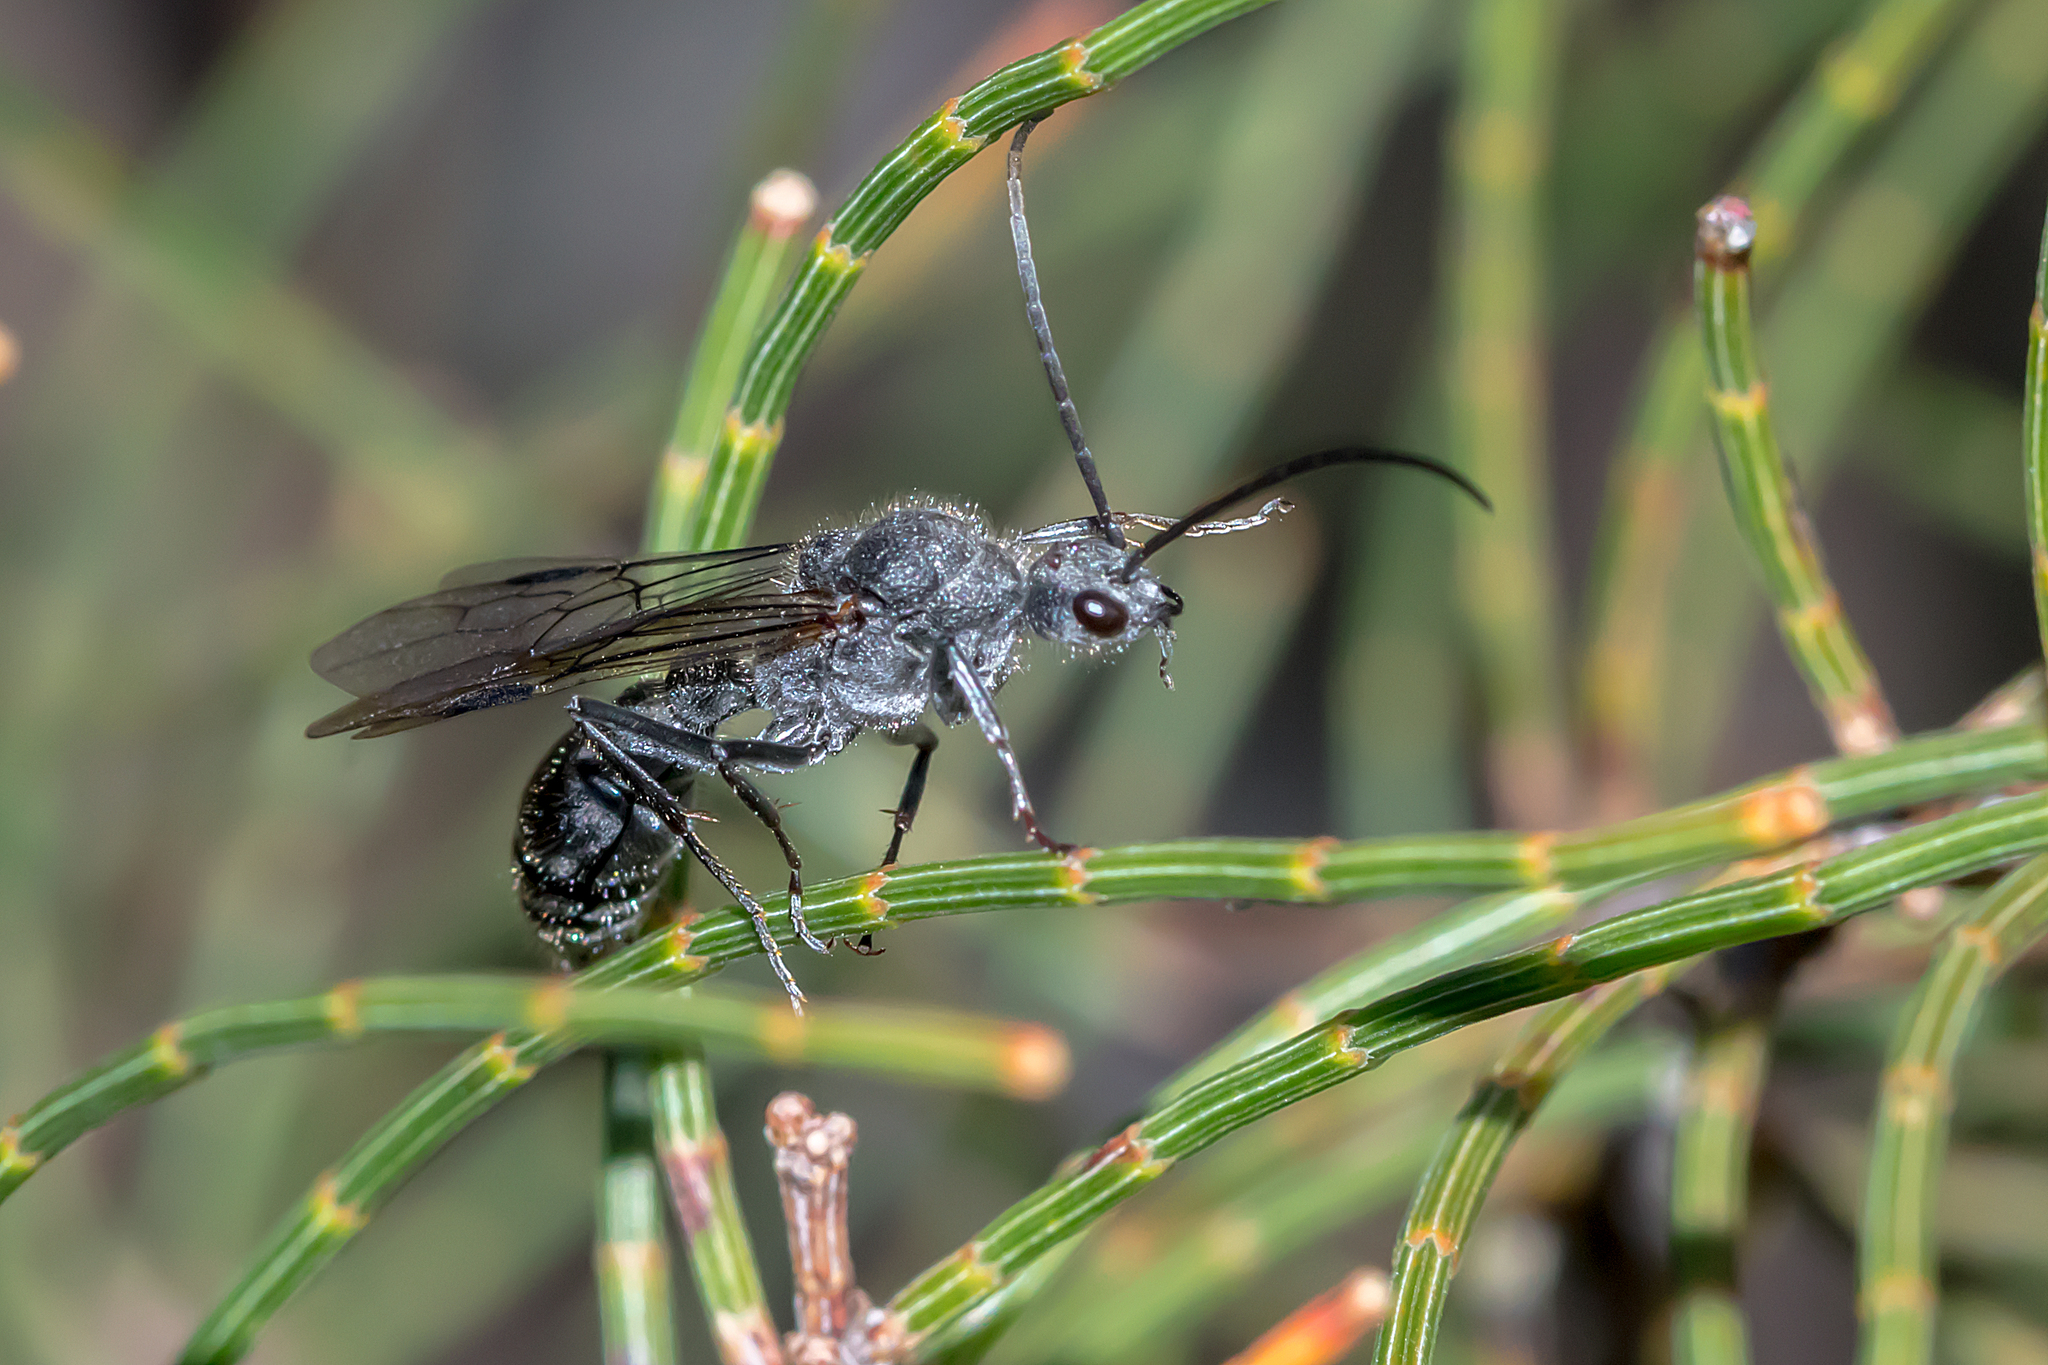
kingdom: Animalia
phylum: Arthropoda
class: Insecta
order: Hymenoptera
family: Formicidae
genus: Myrmecia
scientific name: Myrmecia harderi
